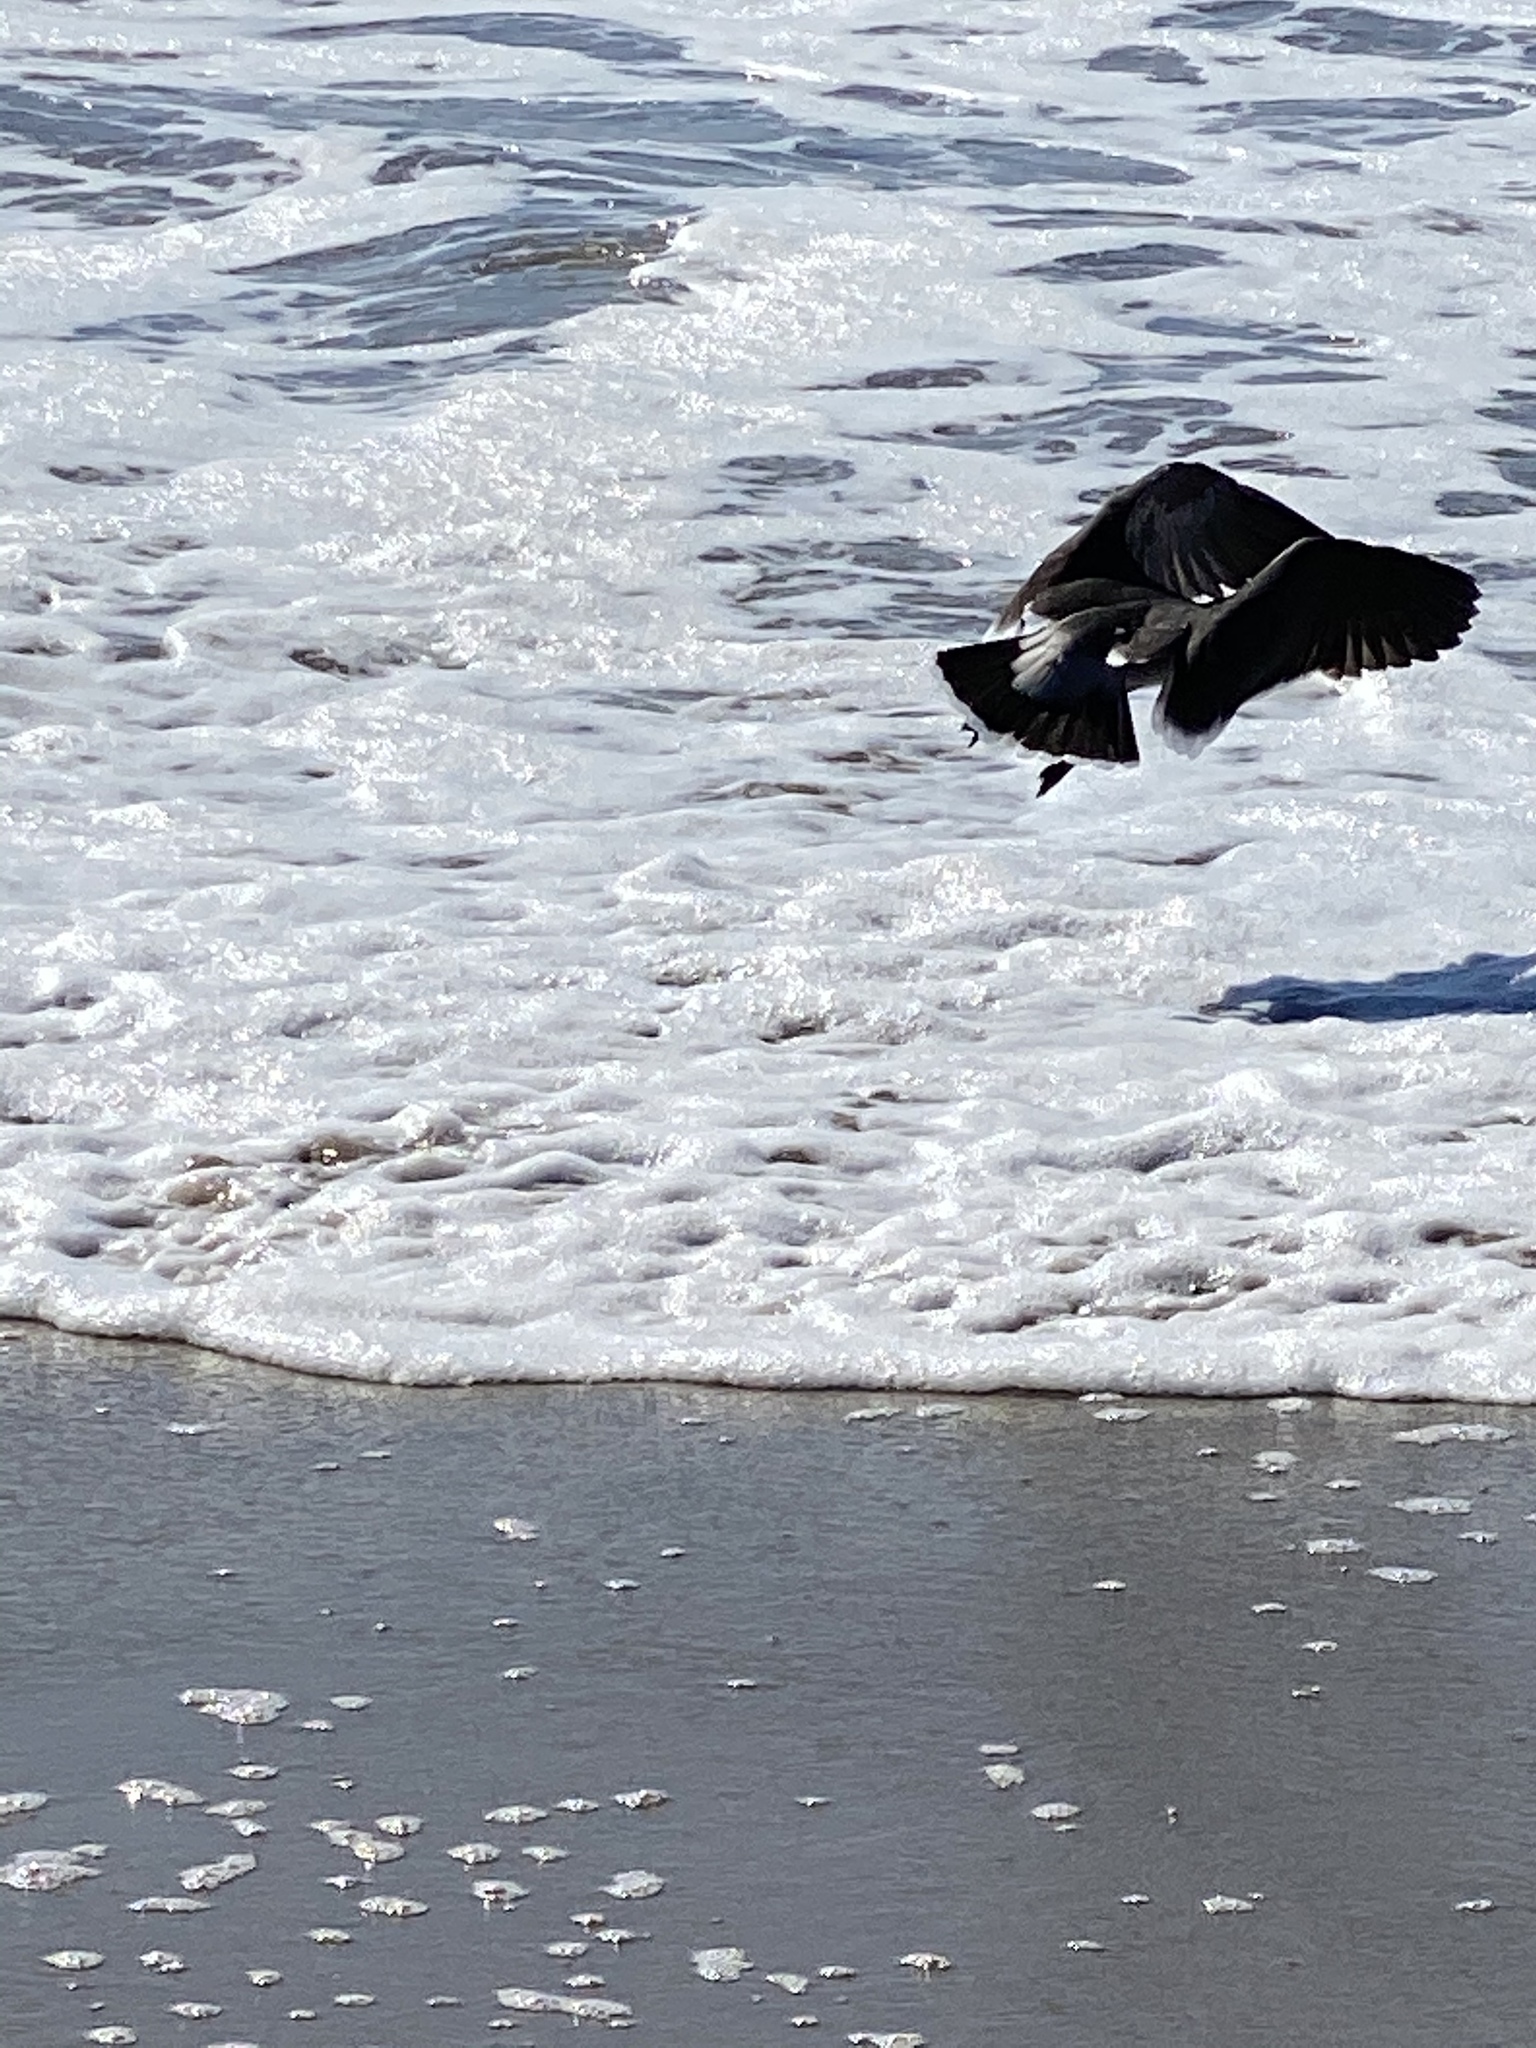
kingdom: Animalia
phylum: Chordata
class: Aves
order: Charadriiformes
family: Laridae
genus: Larus
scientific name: Larus heermanni
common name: Heermann's gull
